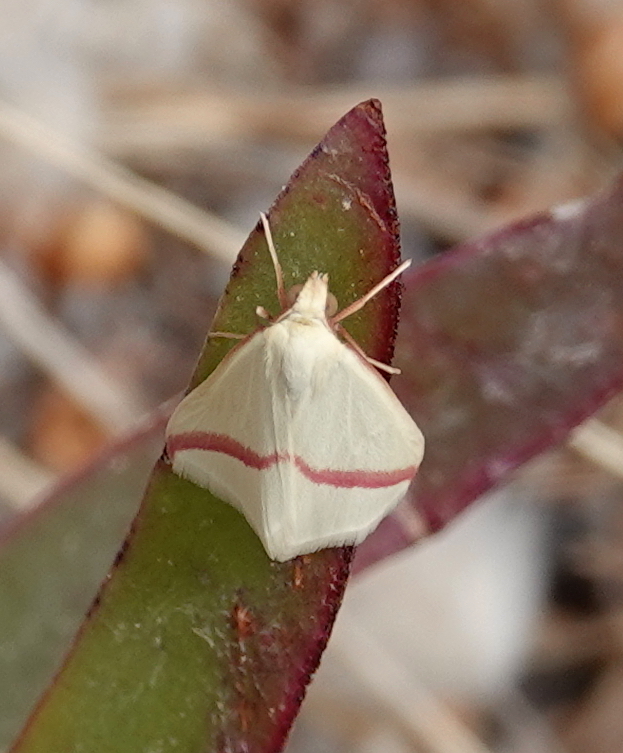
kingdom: Animalia
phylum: Arthropoda
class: Insecta
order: Lepidoptera
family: Geometridae
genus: Rhodometra
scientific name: Rhodometra sacraria
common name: Vestal
